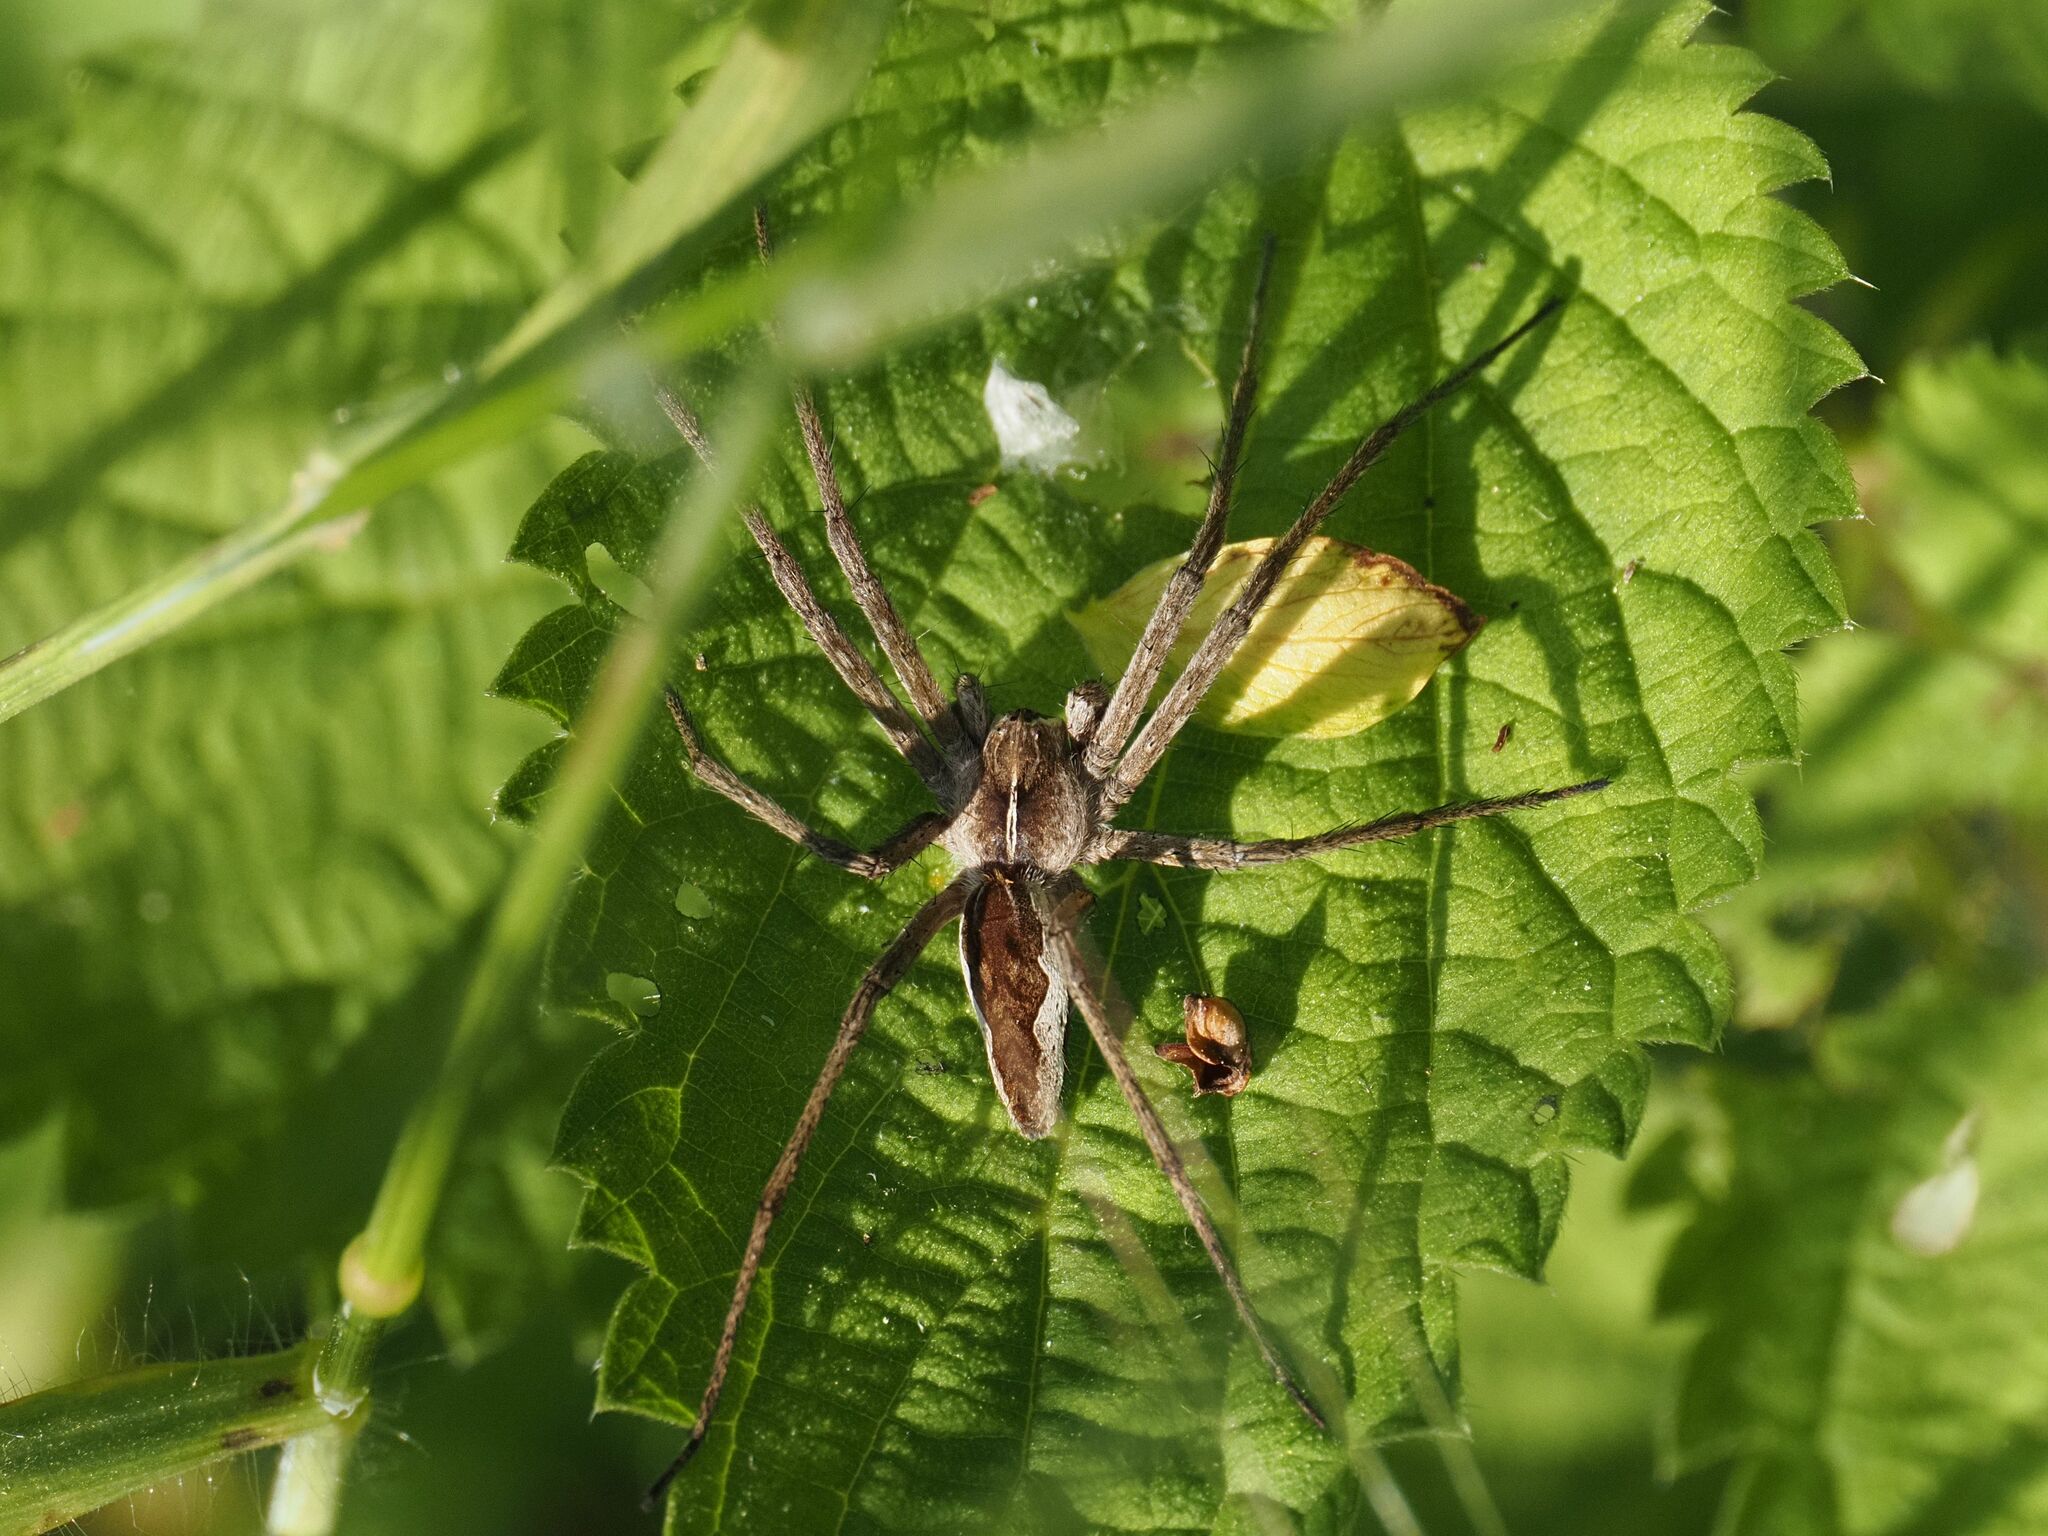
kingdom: Animalia
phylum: Arthropoda
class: Arachnida
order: Araneae
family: Pisauridae
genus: Pisaura
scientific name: Pisaura mirabilis
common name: Tent spider
